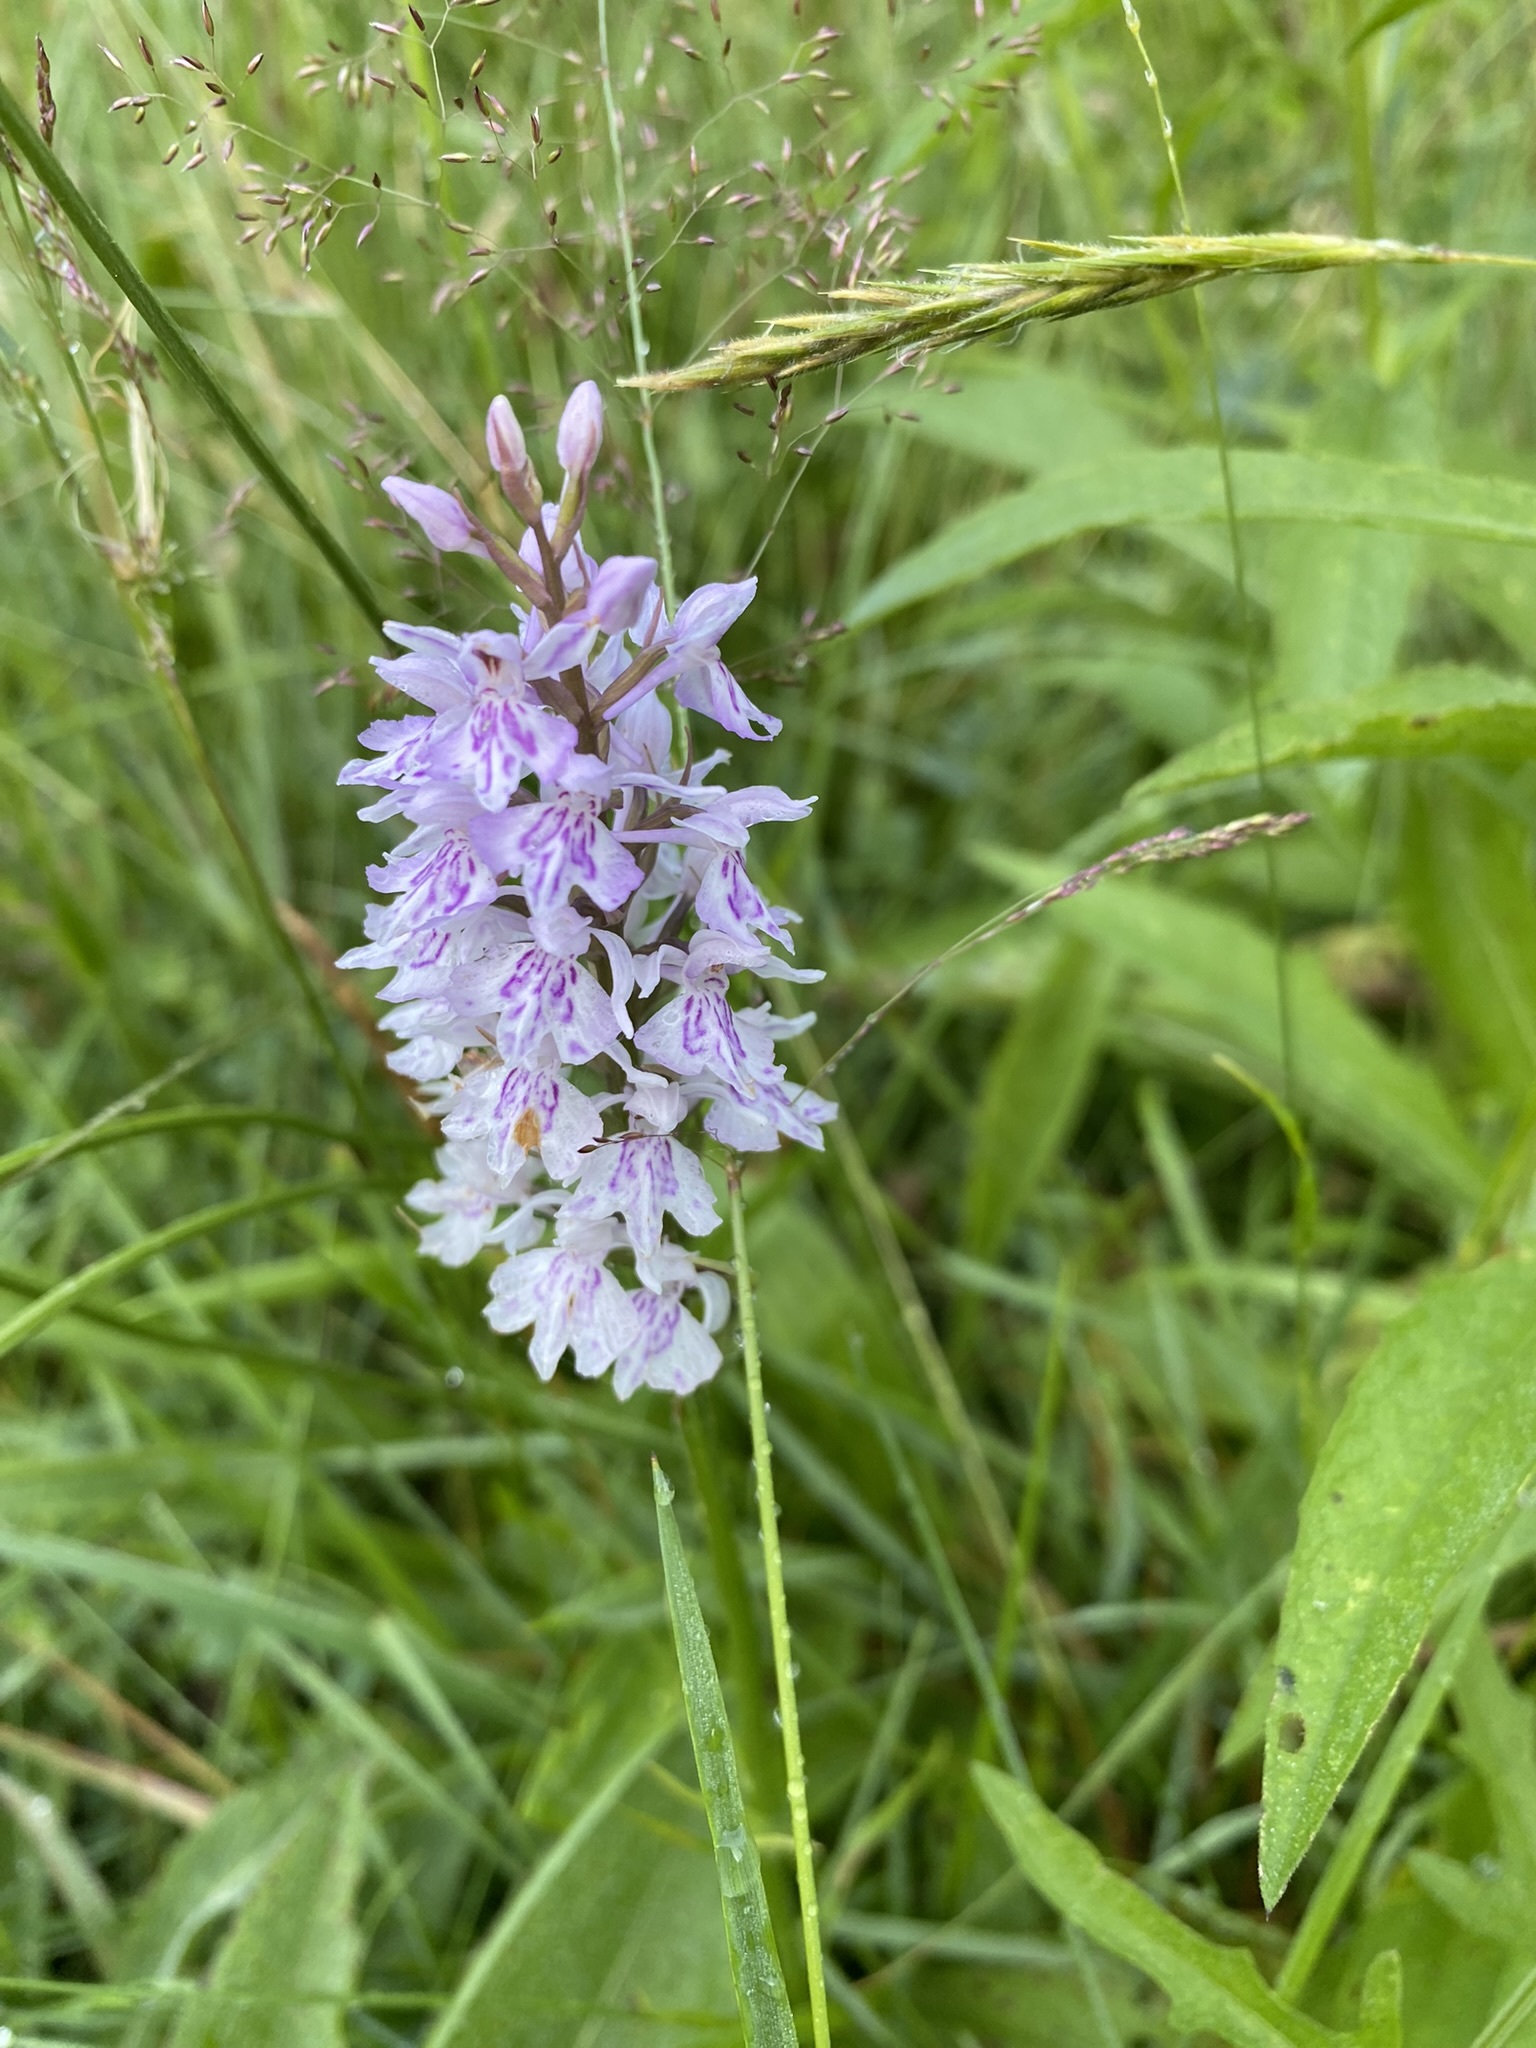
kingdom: Plantae
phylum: Tracheophyta
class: Liliopsida
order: Asparagales
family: Orchidaceae
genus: Dactylorhiza
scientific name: Dactylorhiza maculata
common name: Heath spotted-orchid
